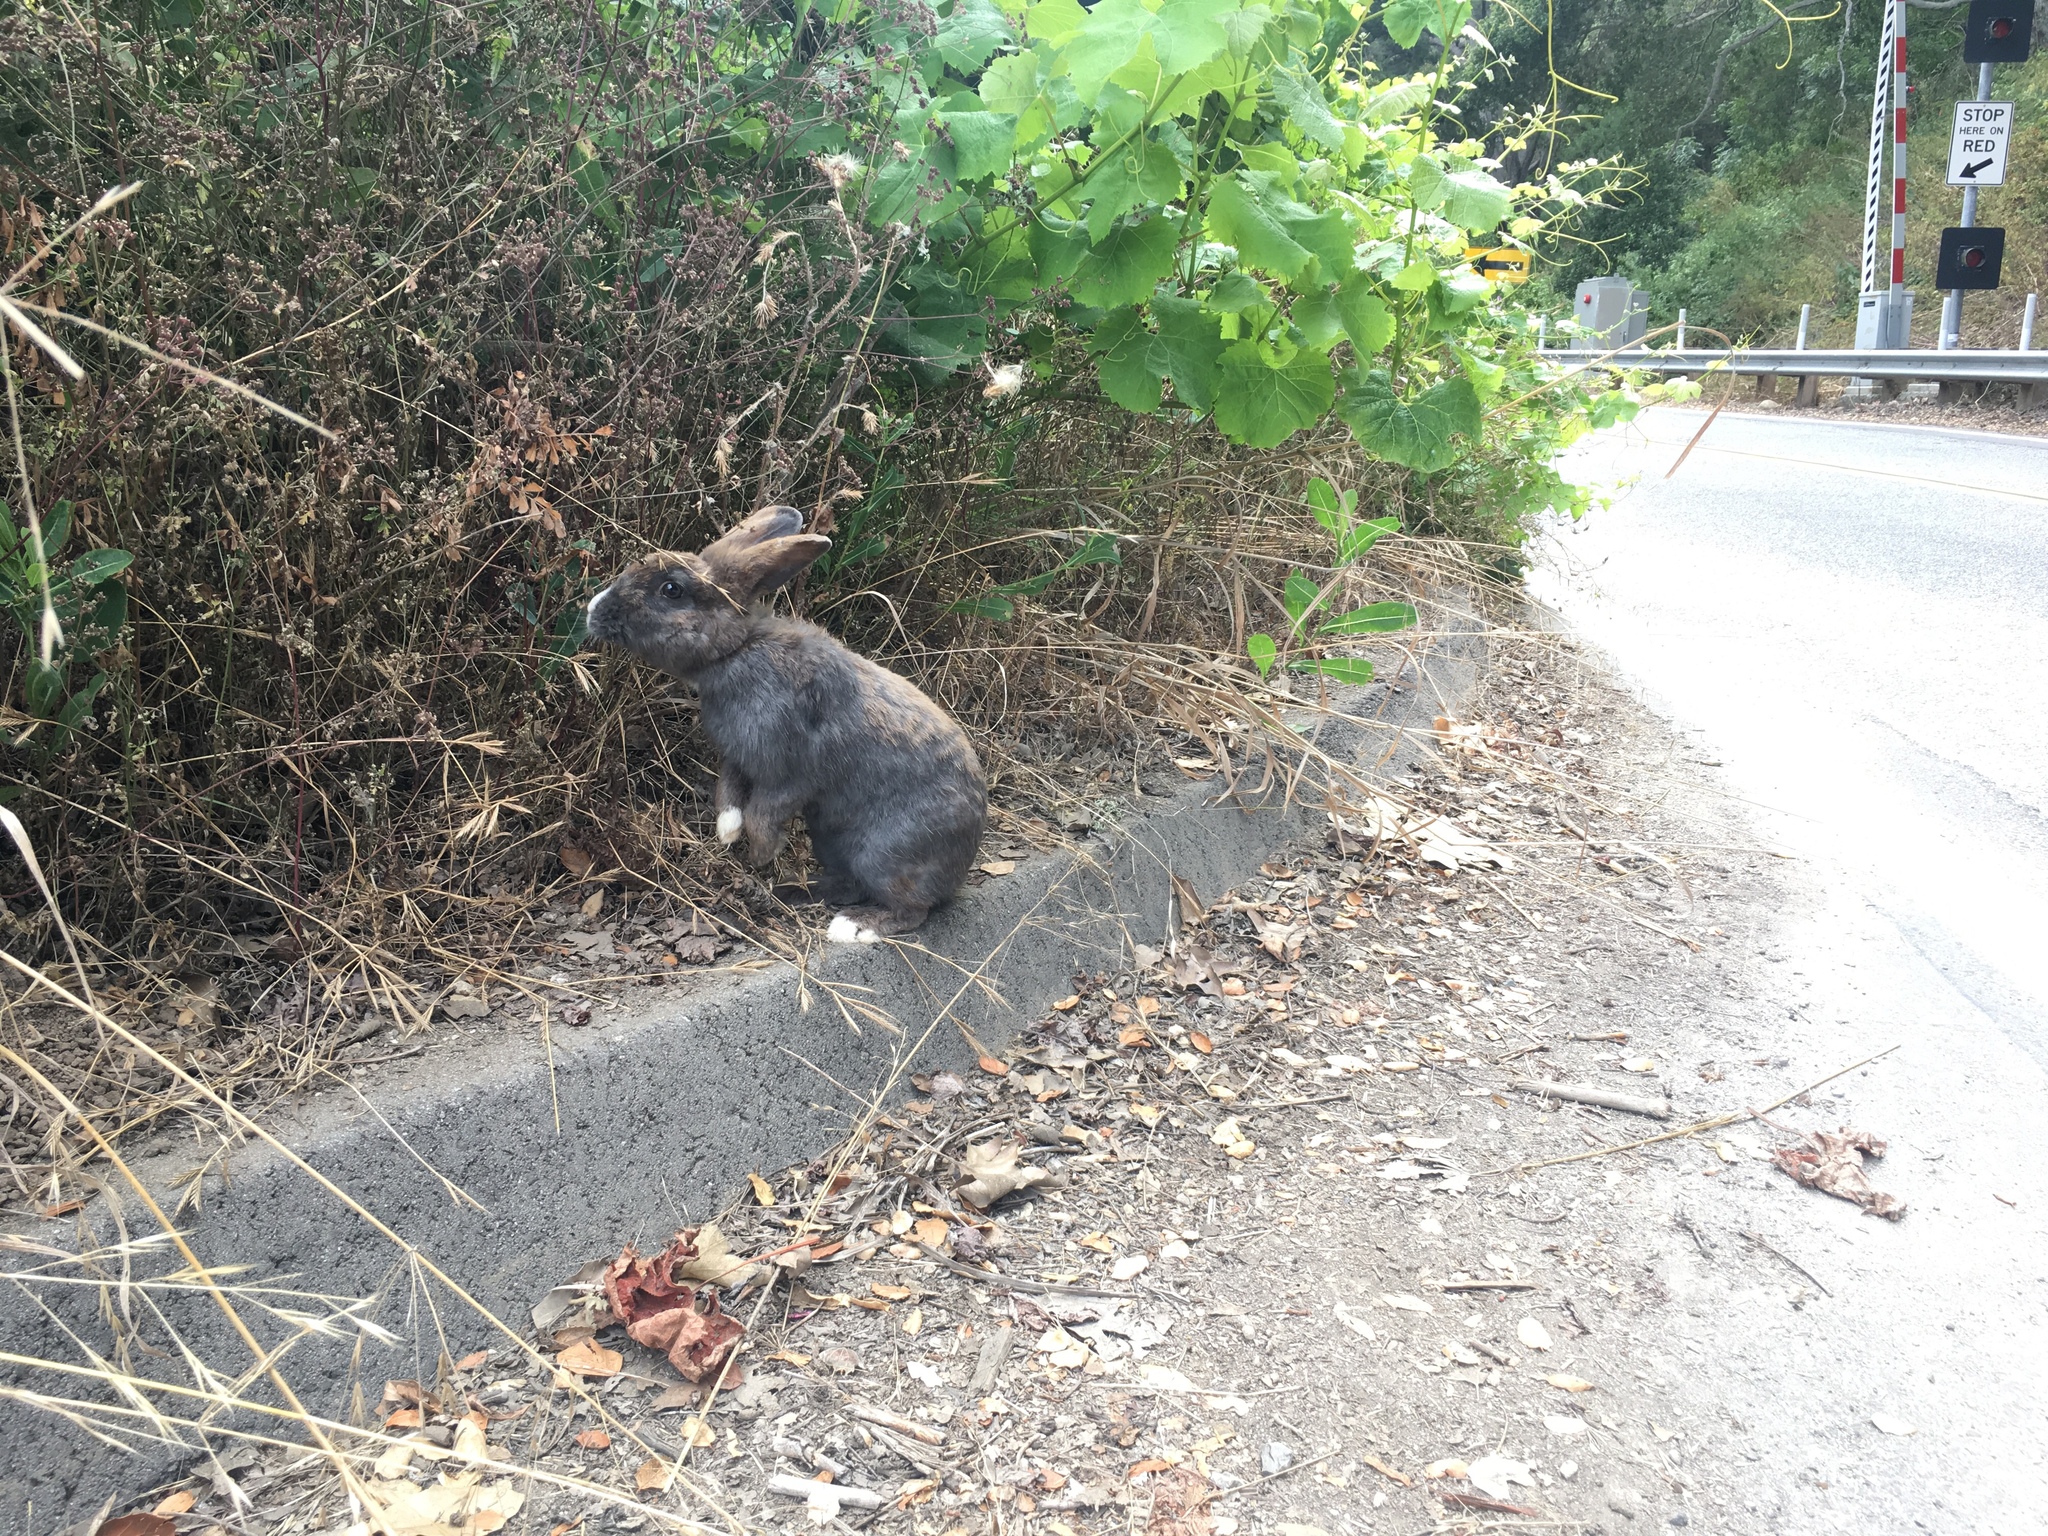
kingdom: Animalia
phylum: Chordata
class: Mammalia
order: Lagomorpha
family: Leporidae
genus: Oryctolagus
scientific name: Oryctolagus cuniculus
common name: European rabbit
